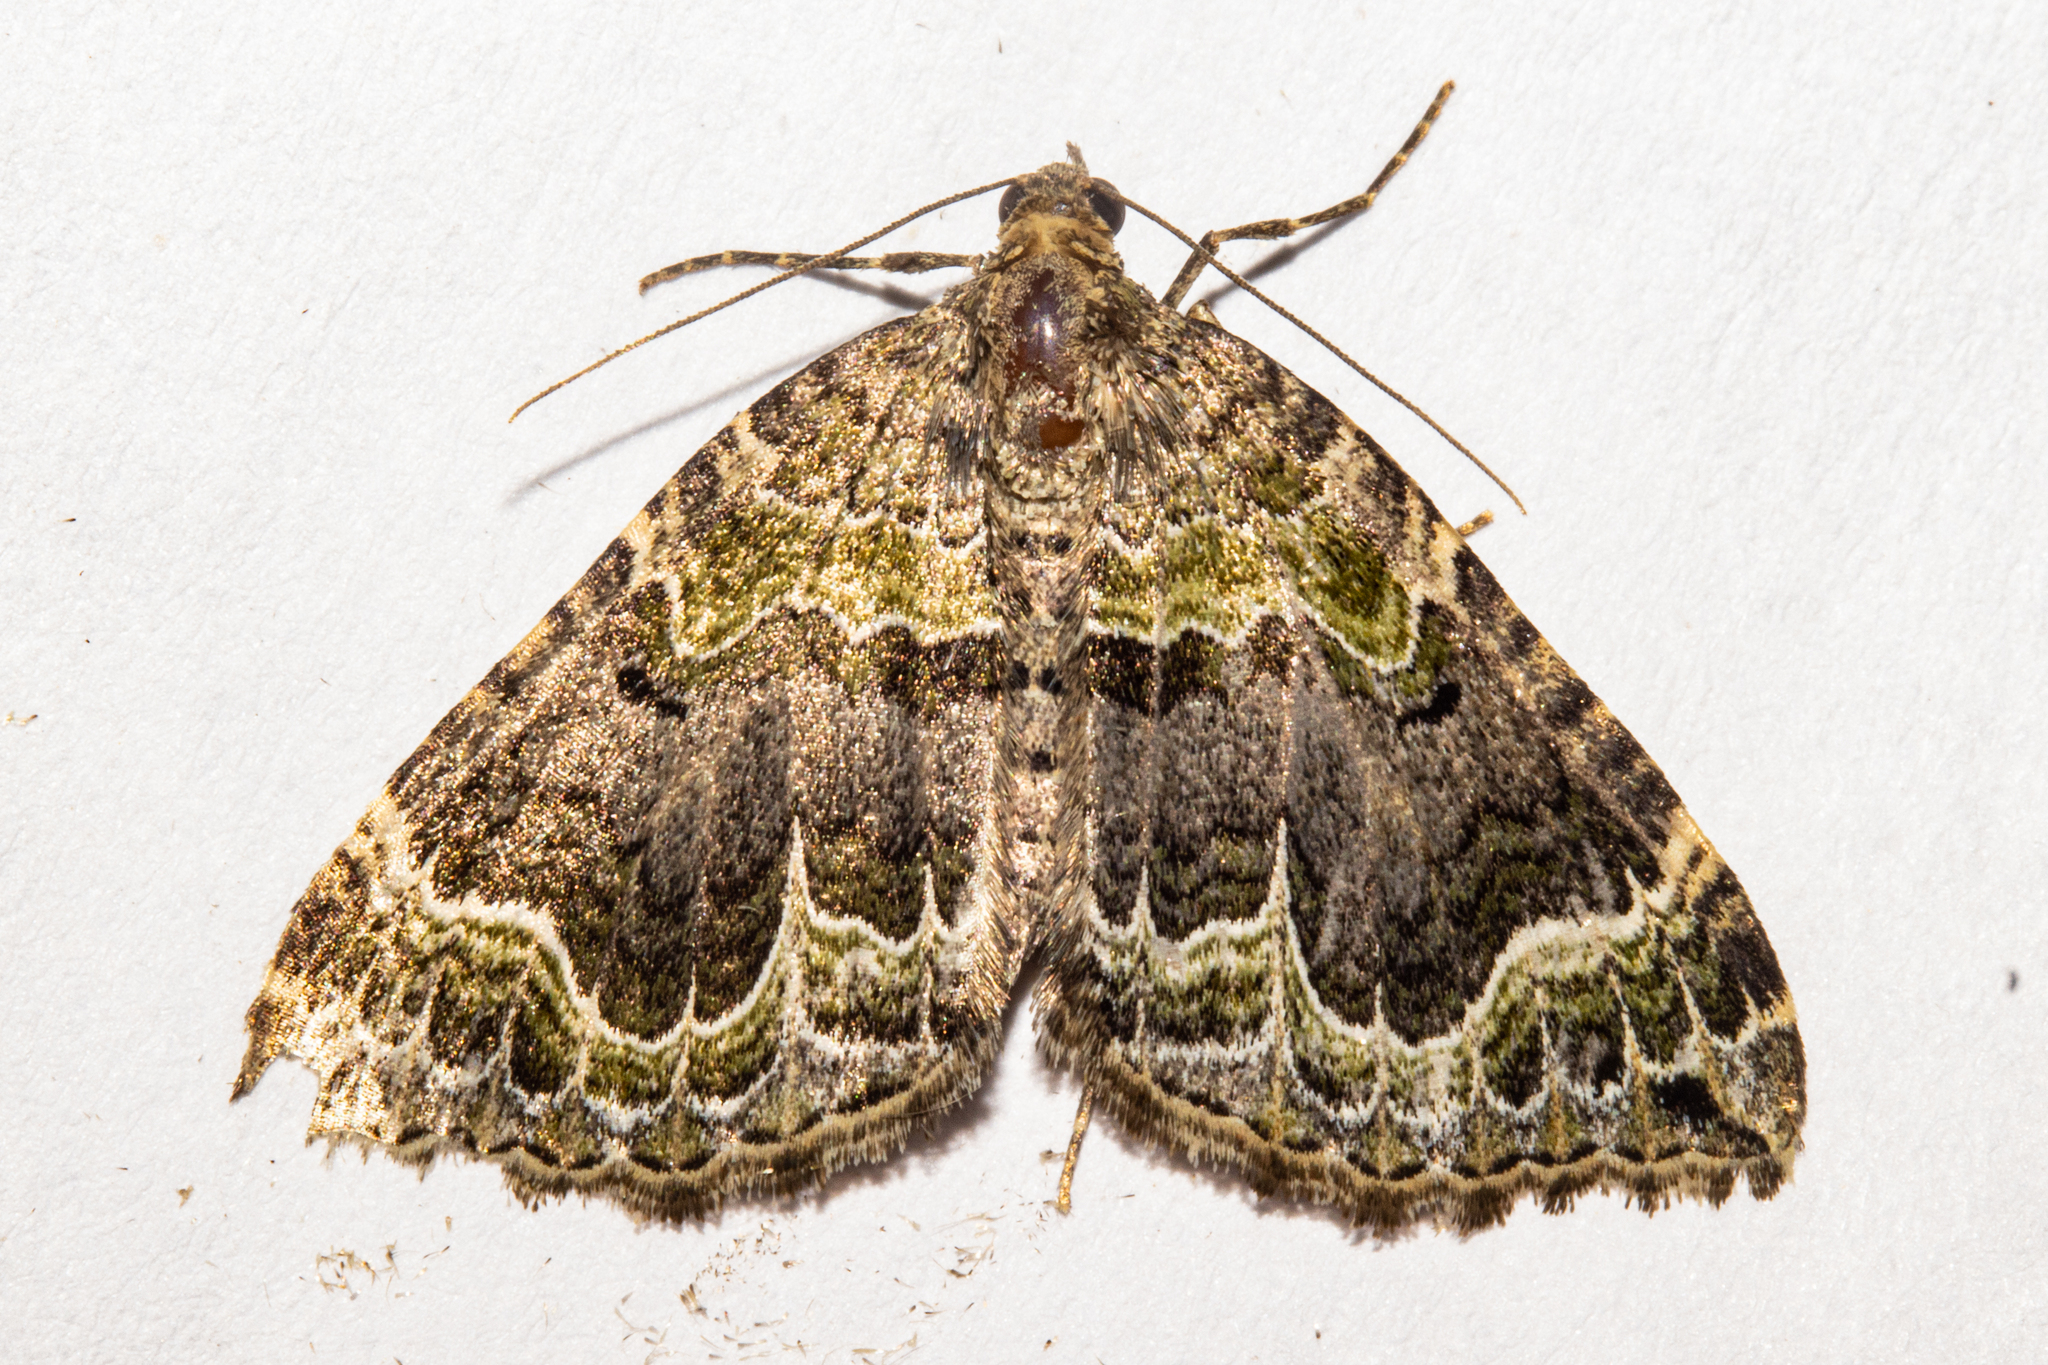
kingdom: Animalia
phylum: Arthropoda
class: Insecta
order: Lepidoptera
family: Geometridae
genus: Hydriomena
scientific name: Hydriomena rixata
